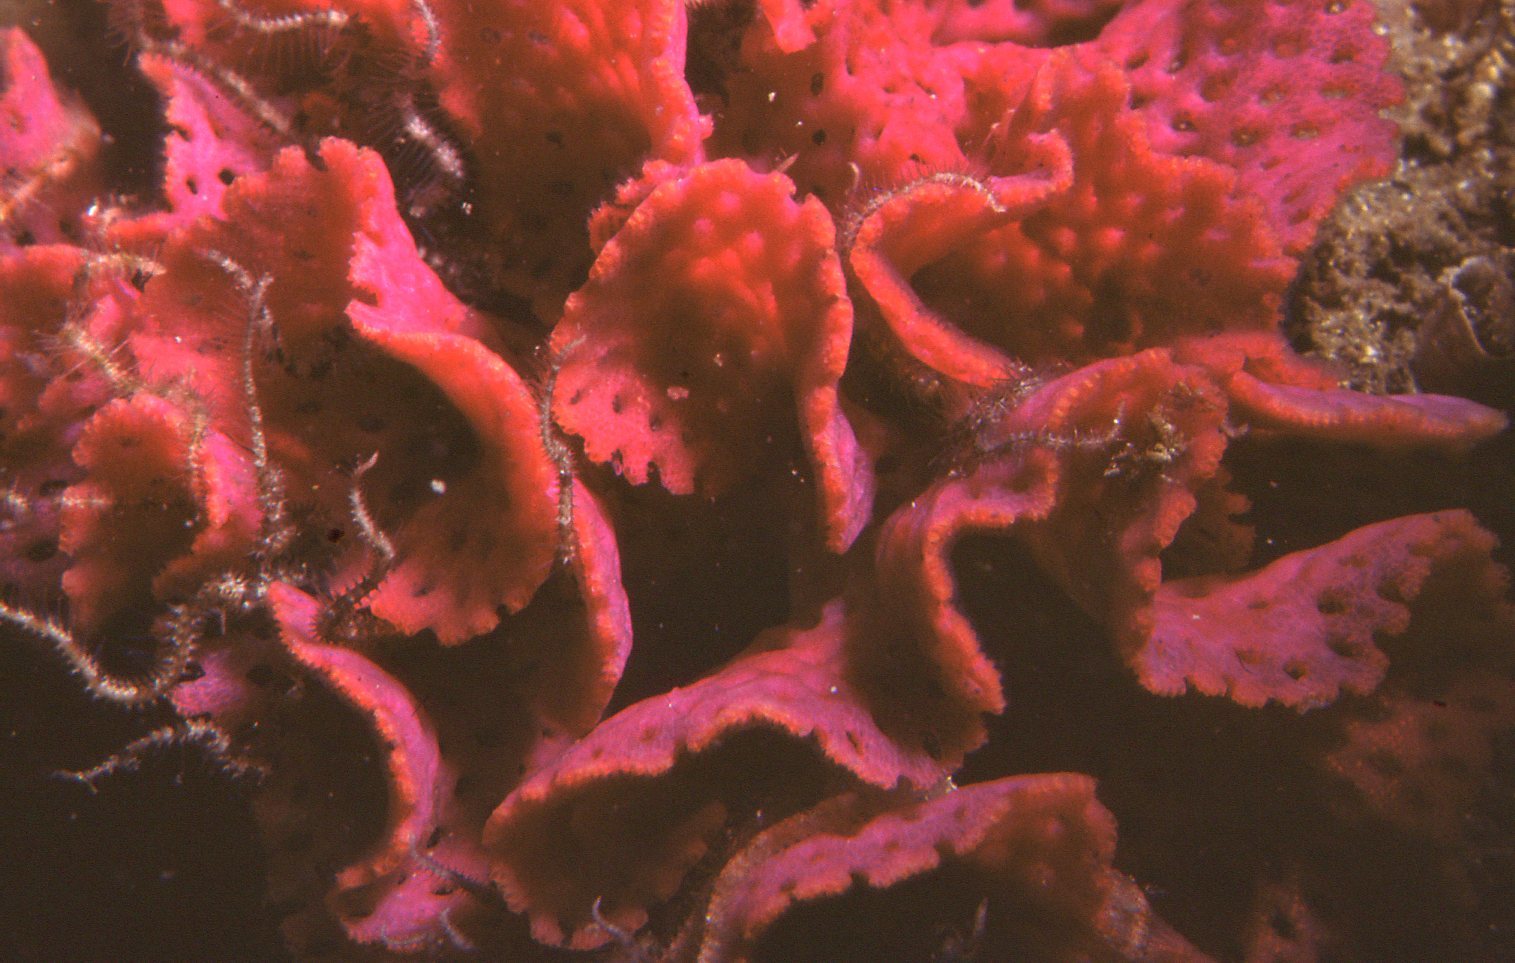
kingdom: Animalia
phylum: Bryozoa
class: Gymnolaemata
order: Cheilostomatida
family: Phidoloporidae
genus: Iodictyum
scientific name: Iodictyum phoeniceum
